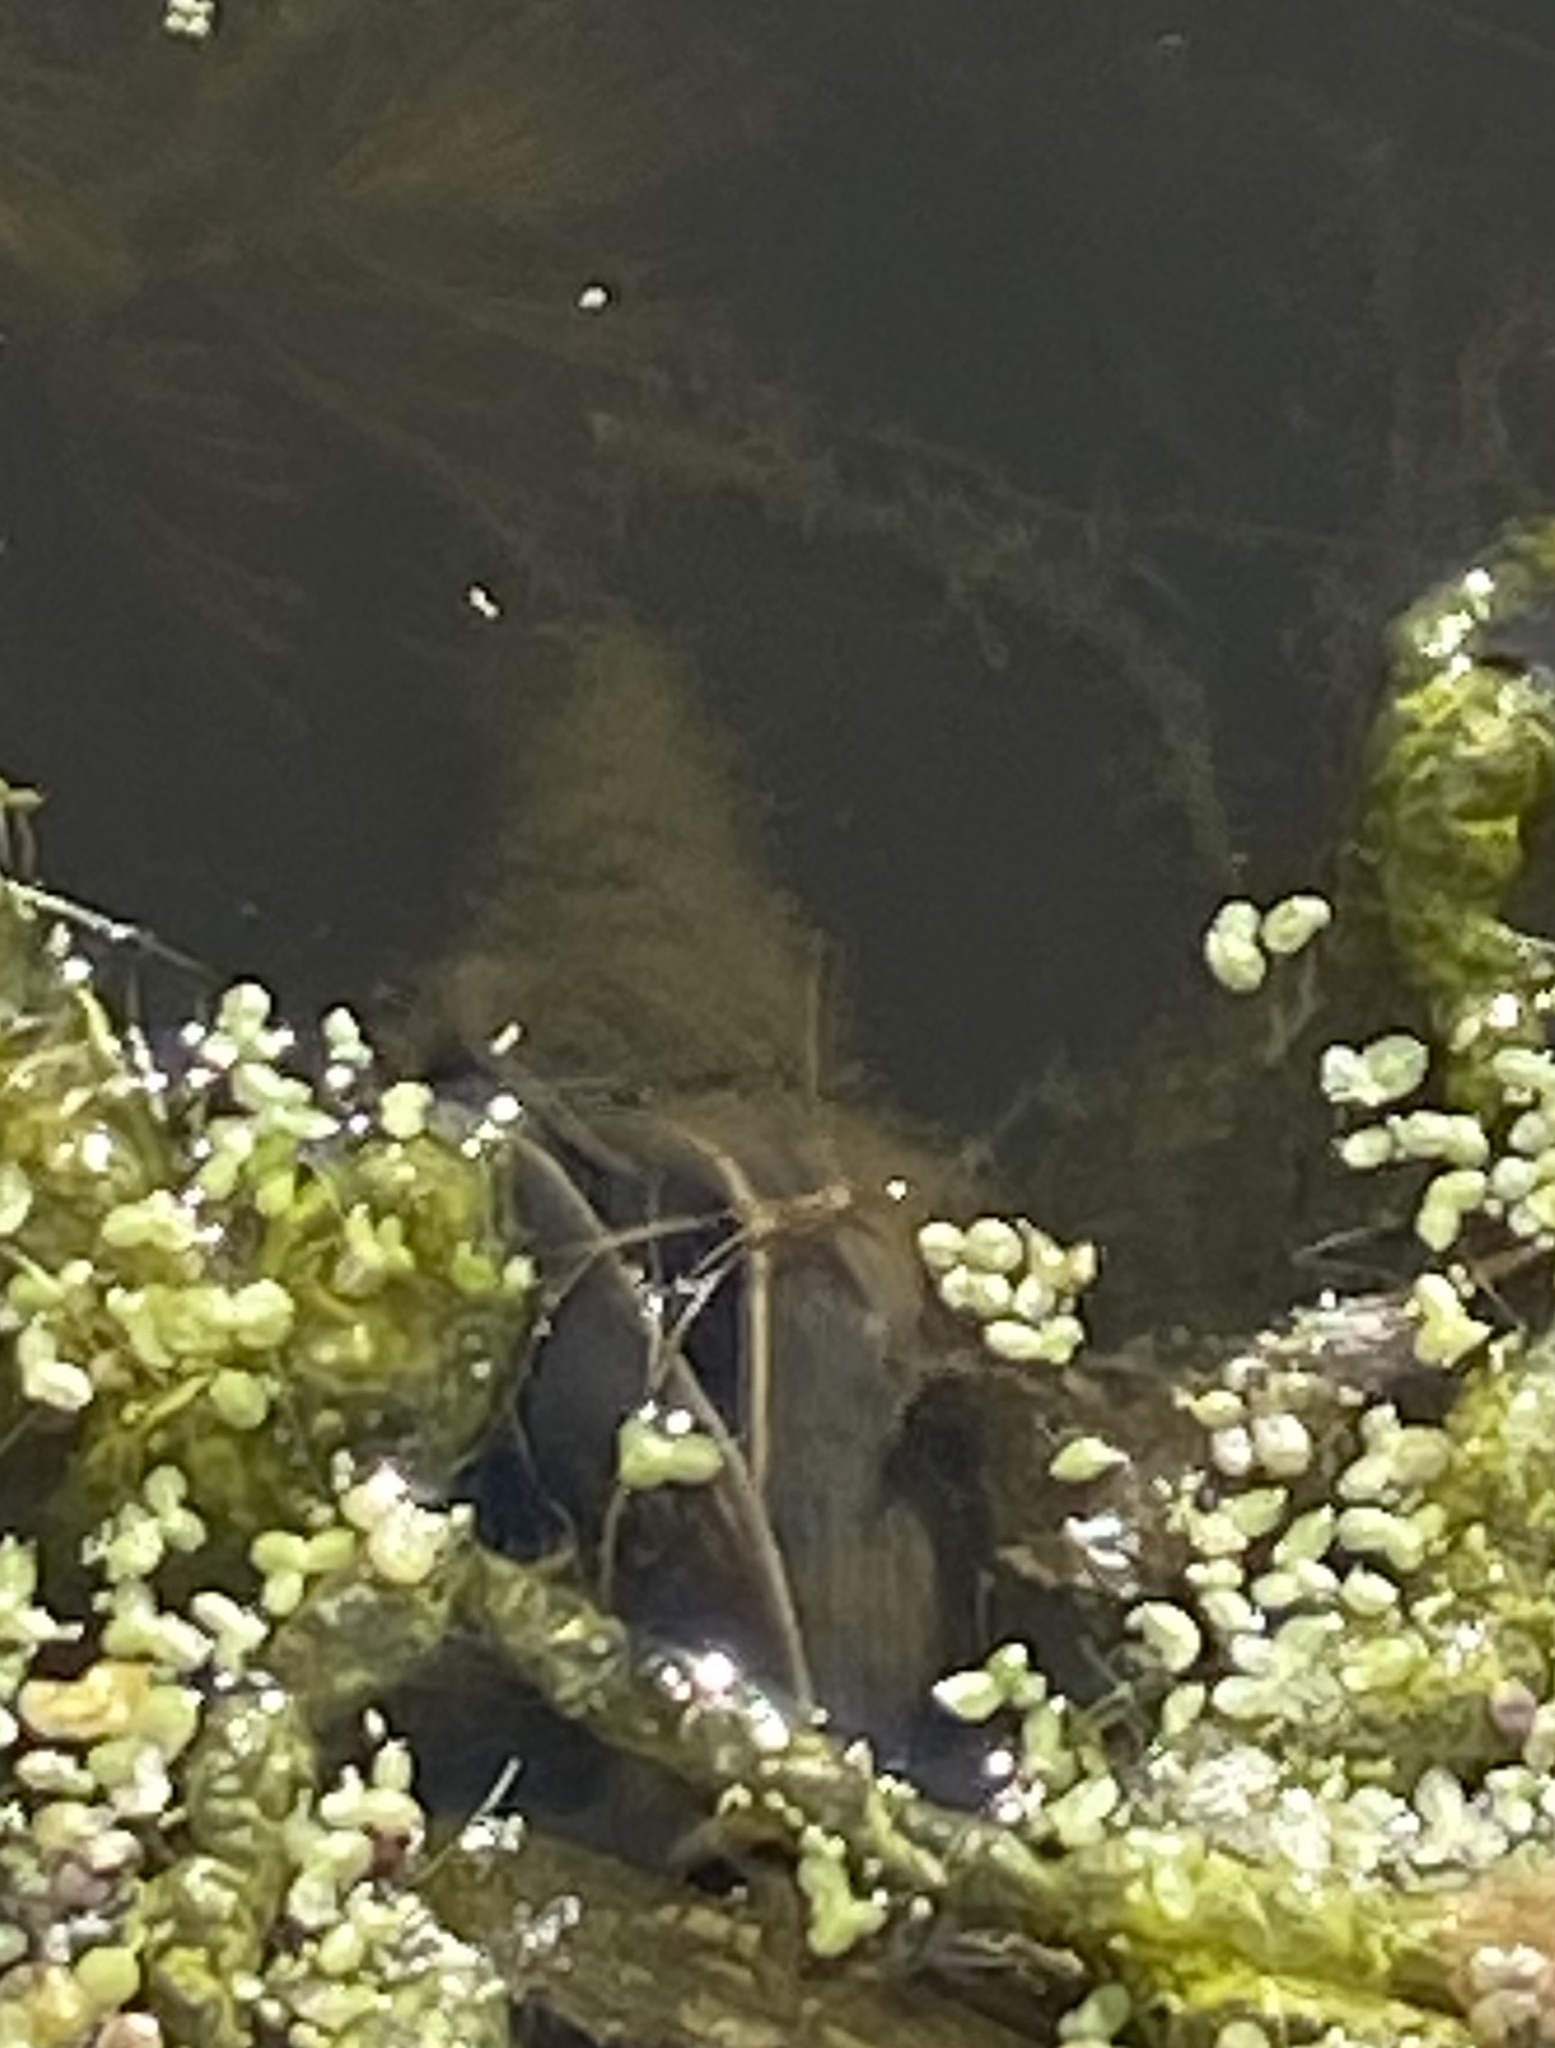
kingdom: Animalia
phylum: Mollusca
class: Gastropoda
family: Lymnaeidae
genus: Lymnaea
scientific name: Lymnaea stagnalis
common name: Great pond snail
